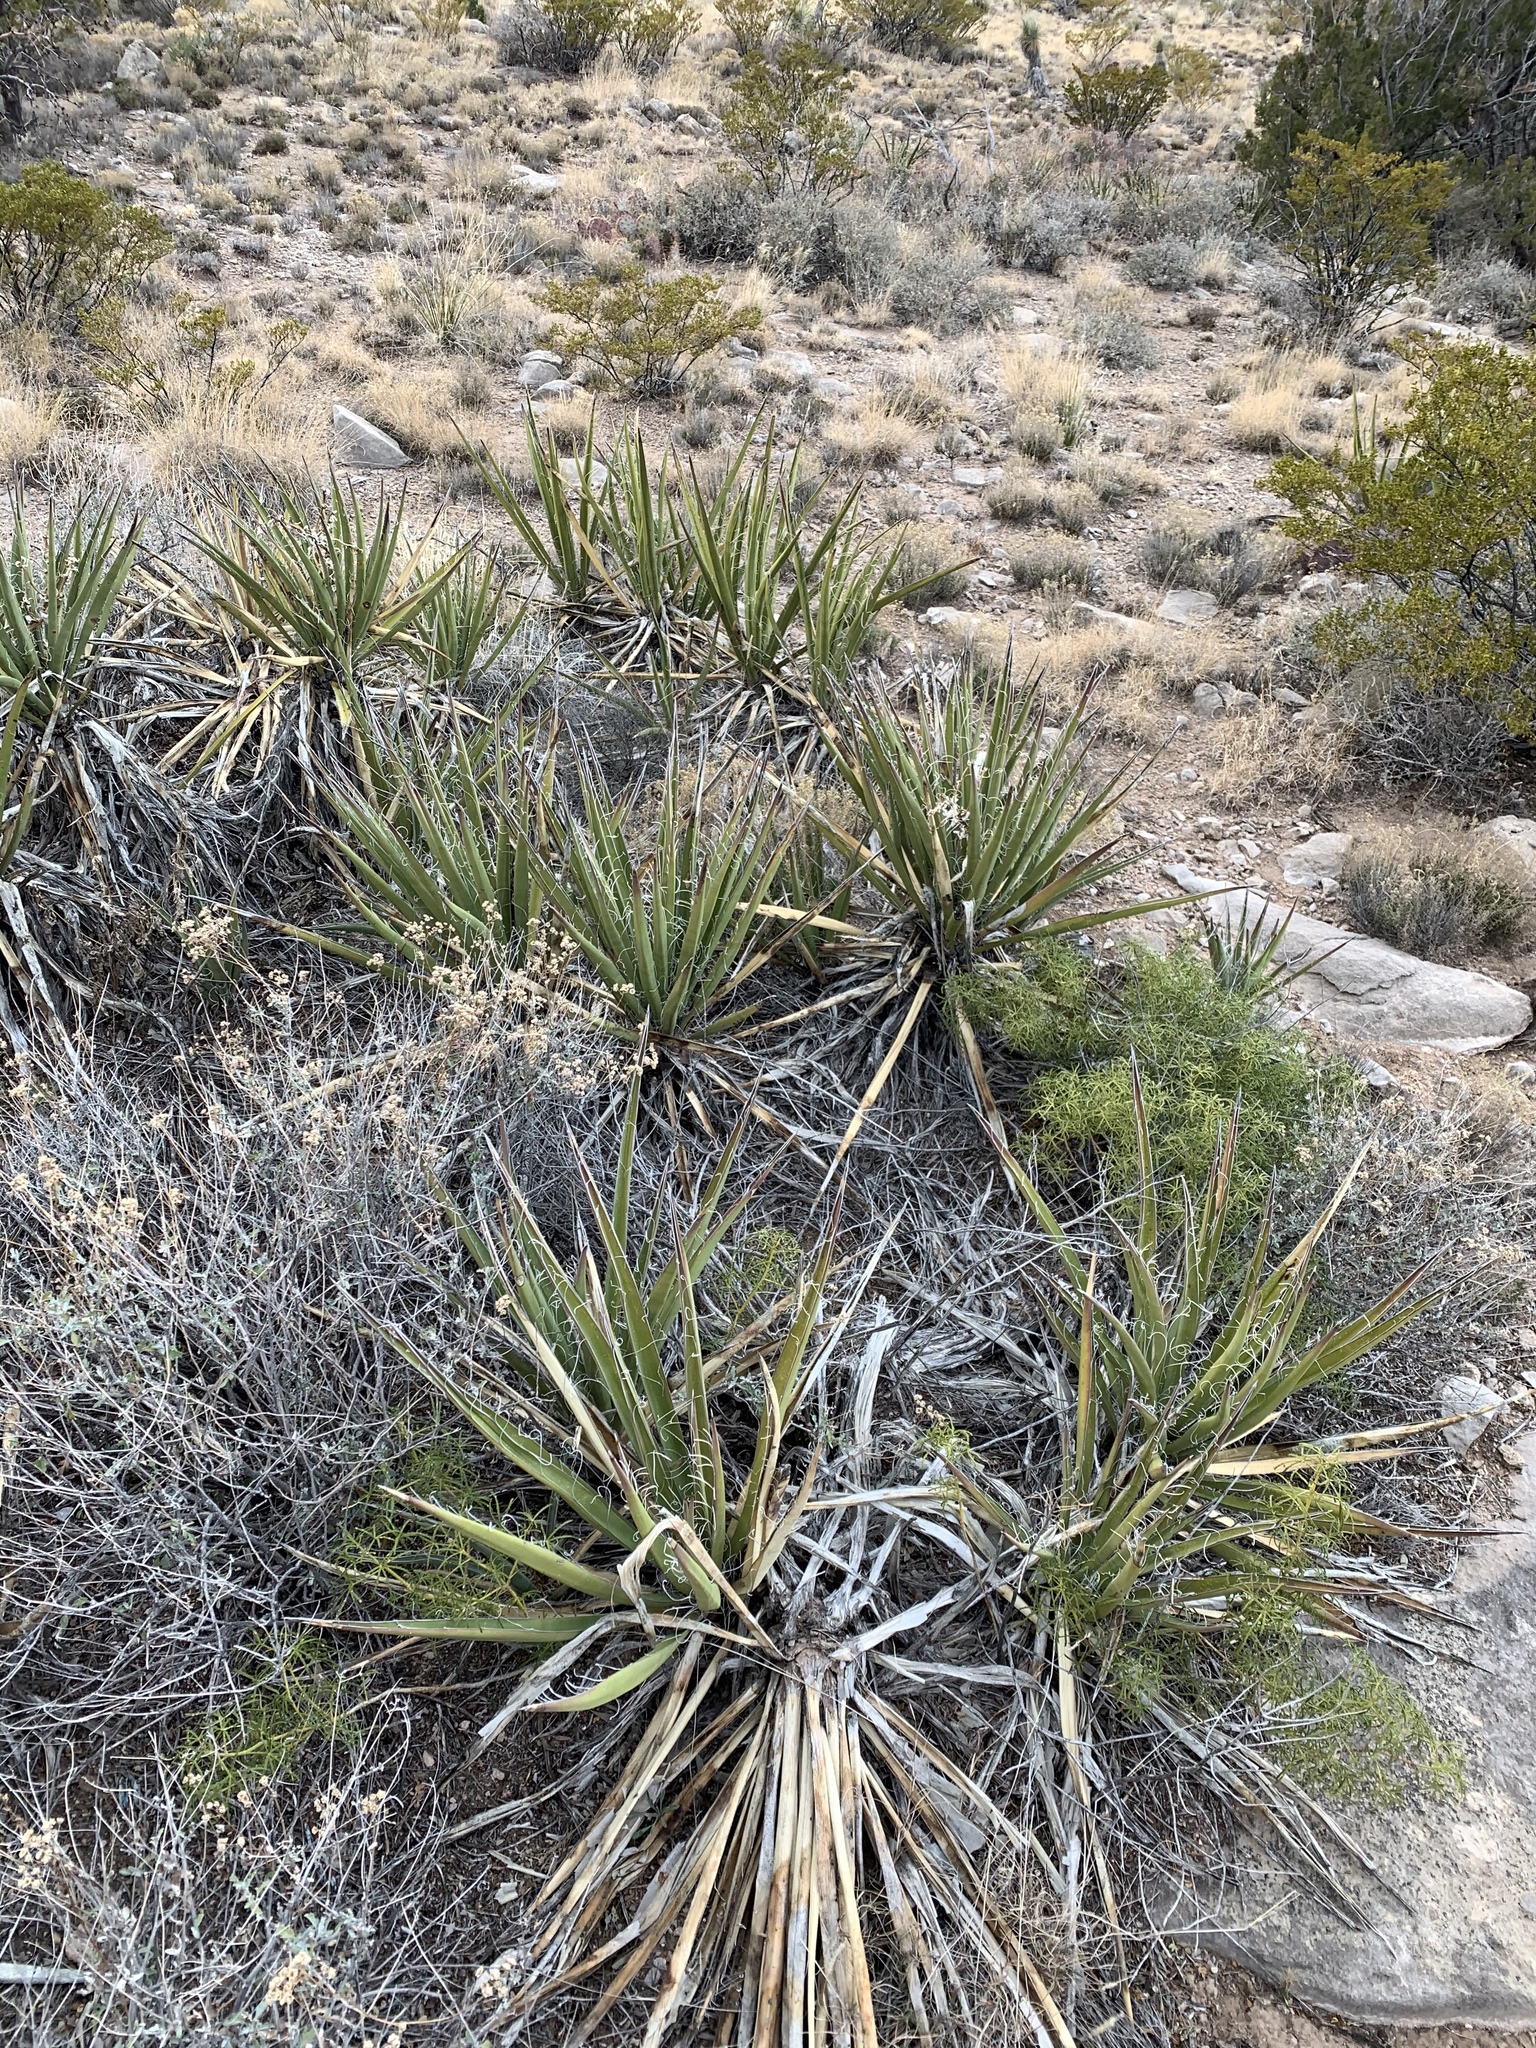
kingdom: Plantae
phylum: Tracheophyta
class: Liliopsida
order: Asparagales
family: Asparagaceae
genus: Yucca
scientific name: Yucca baccata
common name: Banana yucca
